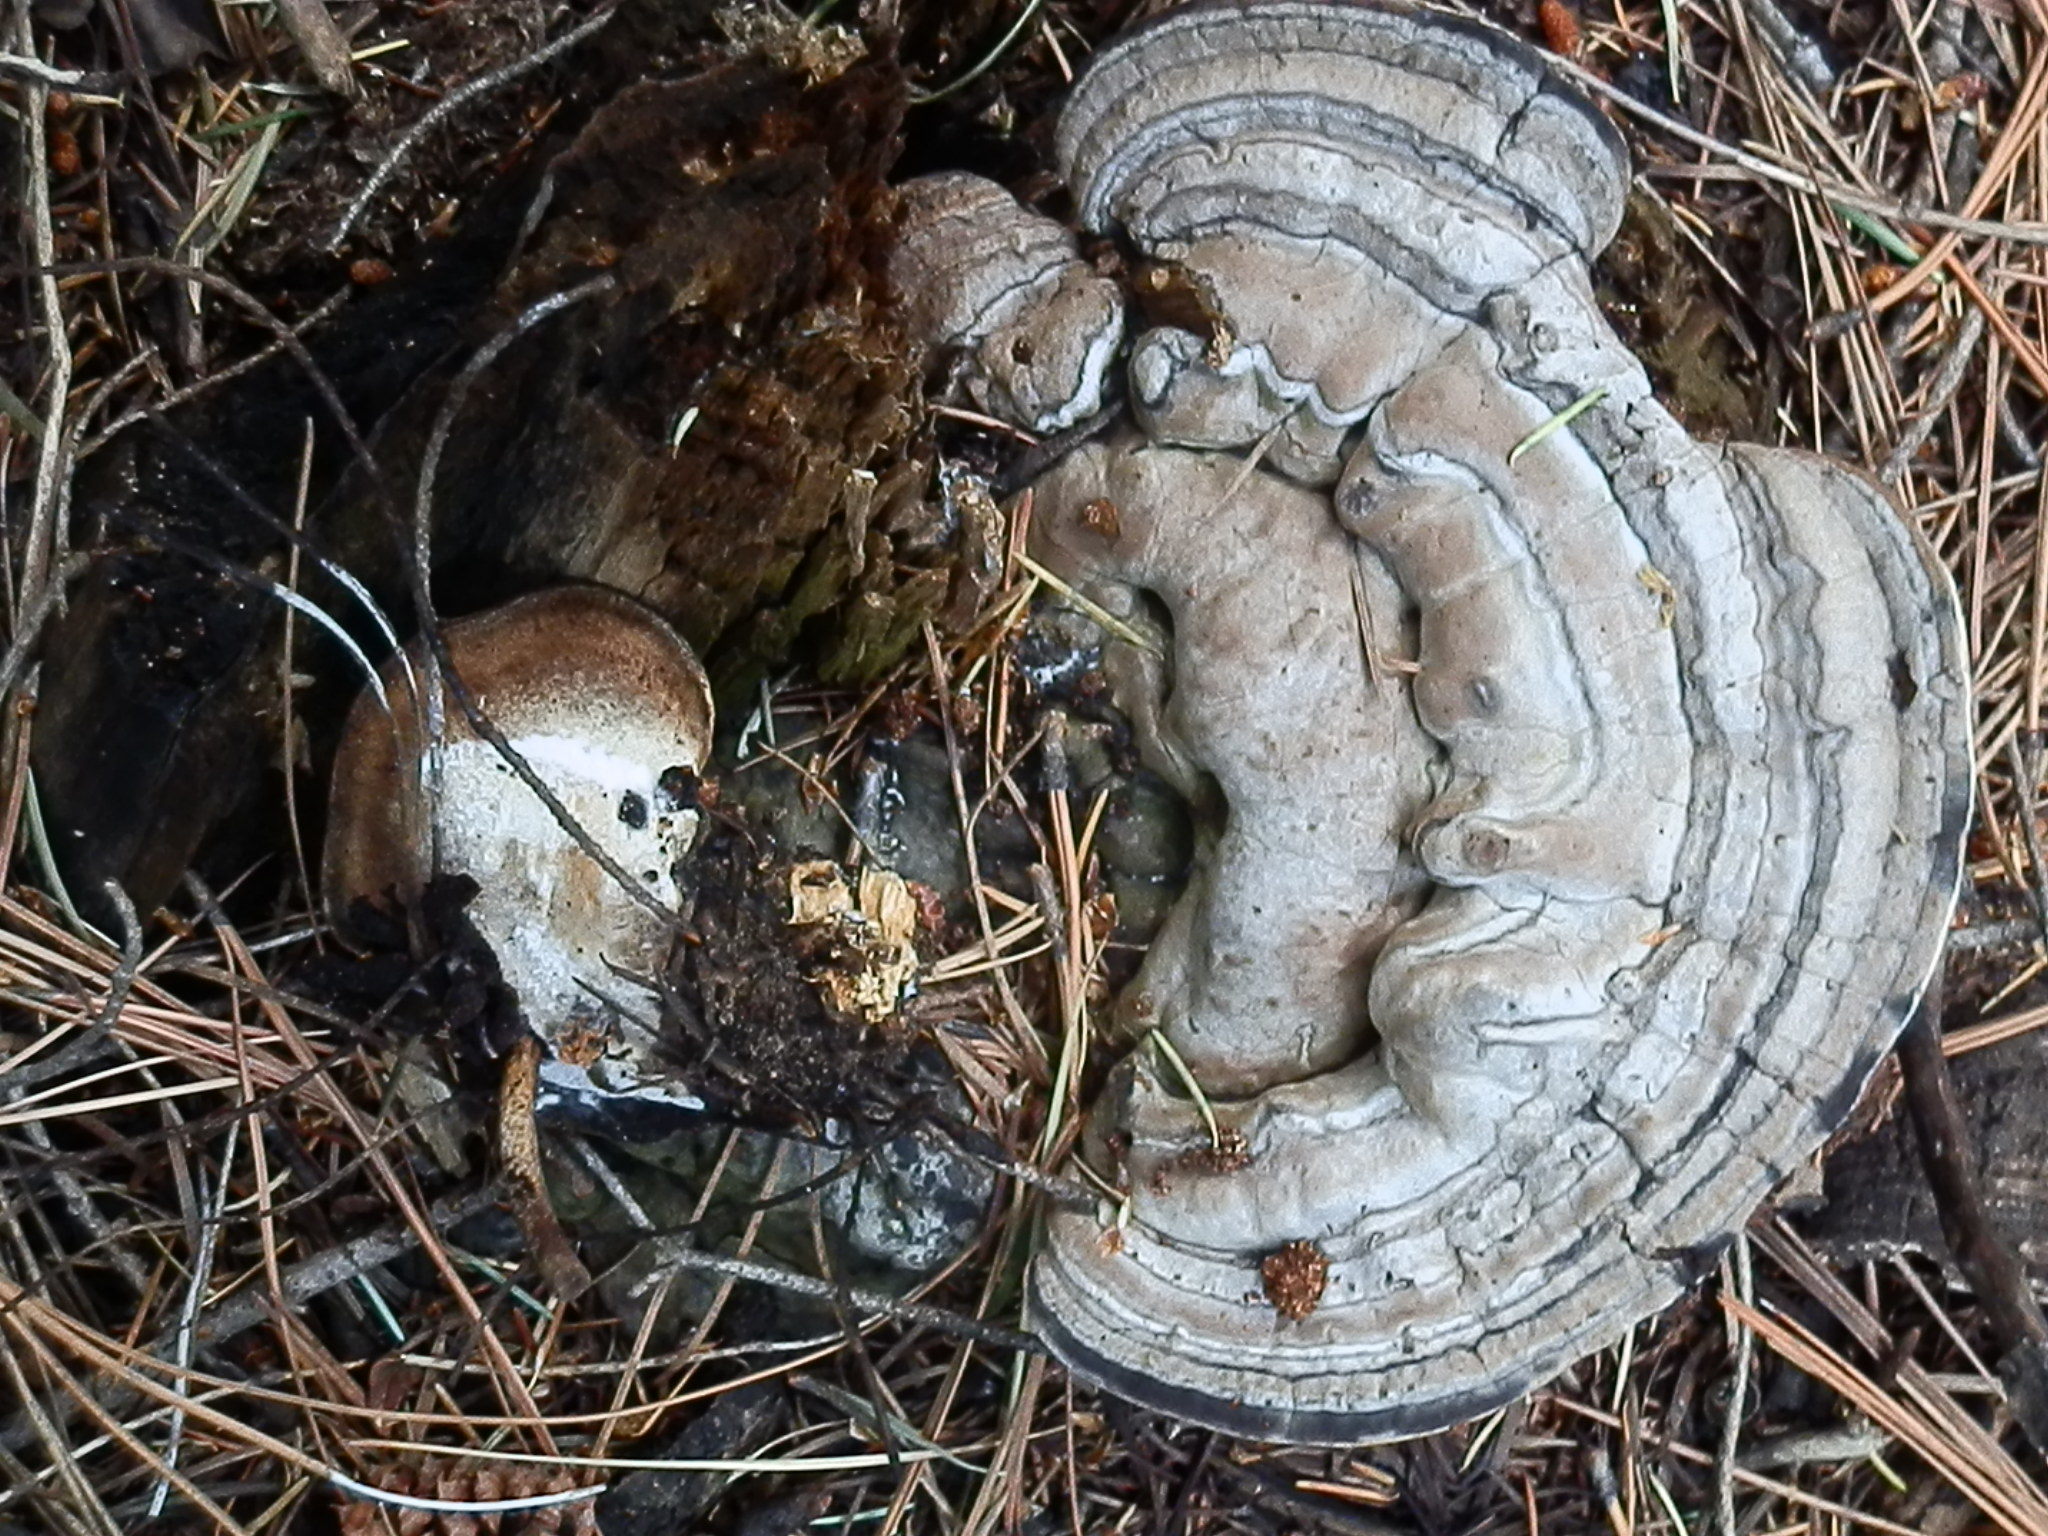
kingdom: Fungi
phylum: Basidiomycota
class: Agaricomycetes
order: Polyporales
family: Polyporaceae
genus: Ganoderma
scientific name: Ganoderma applanatum
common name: Artist's bracket
